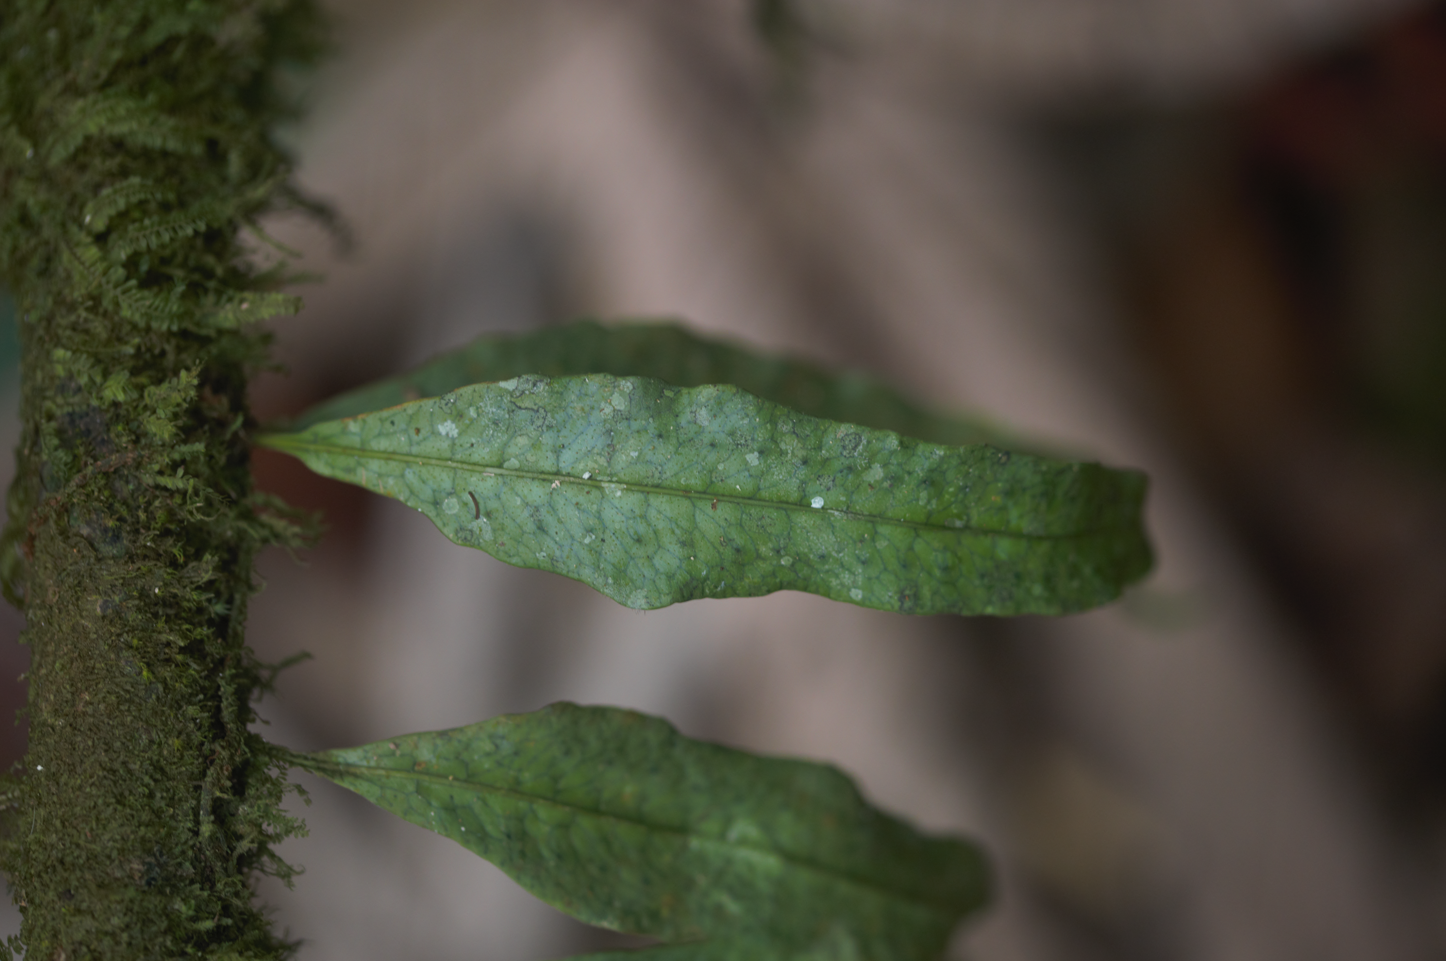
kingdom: Plantae
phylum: Tracheophyta
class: Polypodiopsida
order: Polypodiales
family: Polypodiaceae
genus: Microgramma
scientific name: Microgramma dictyophylla
